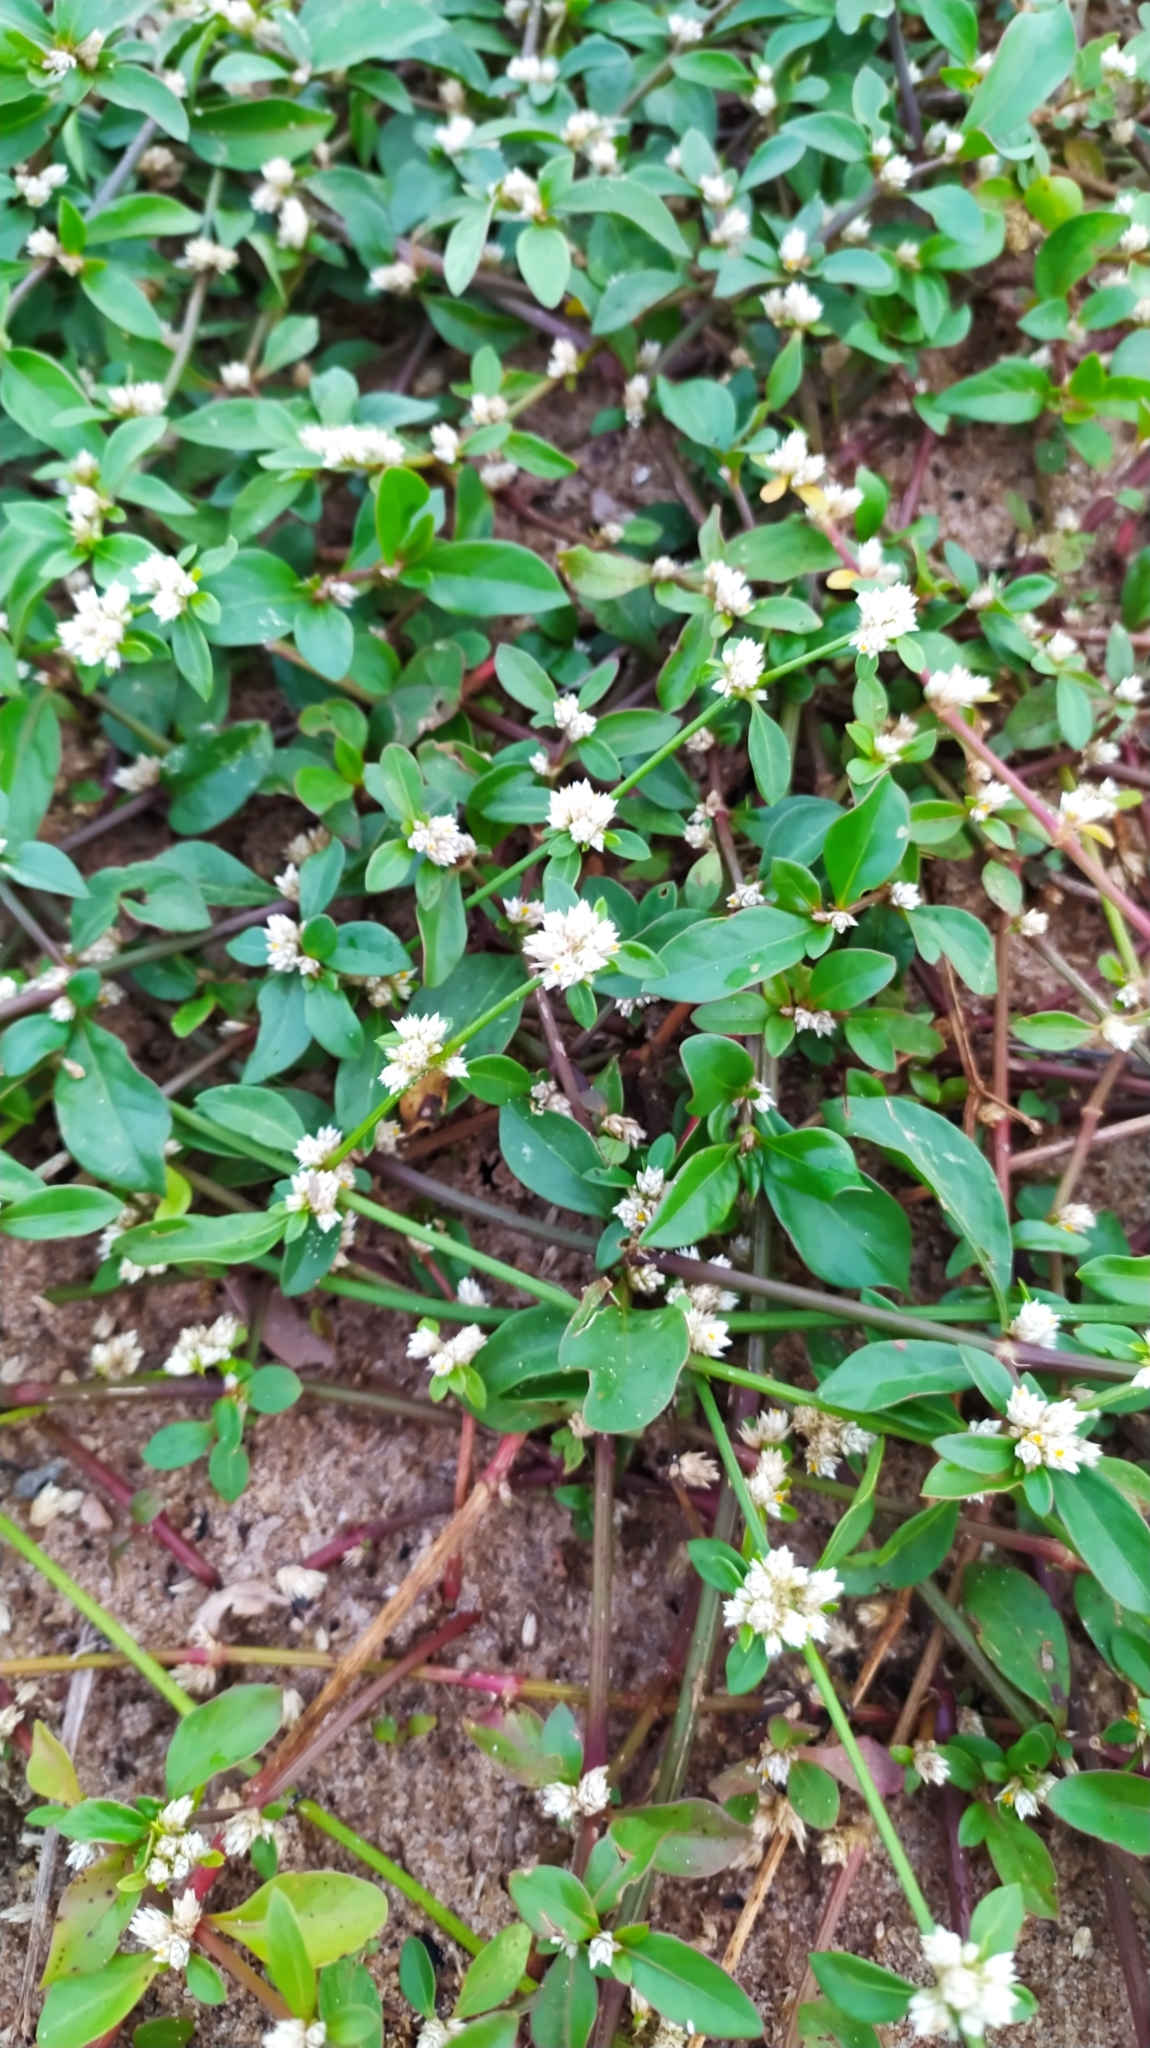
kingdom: Plantae
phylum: Tracheophyta
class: Magnoliopsida
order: Caryophyllales
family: Amaranthaceae
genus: Alternanthera
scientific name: Alternanthera ficoidea
